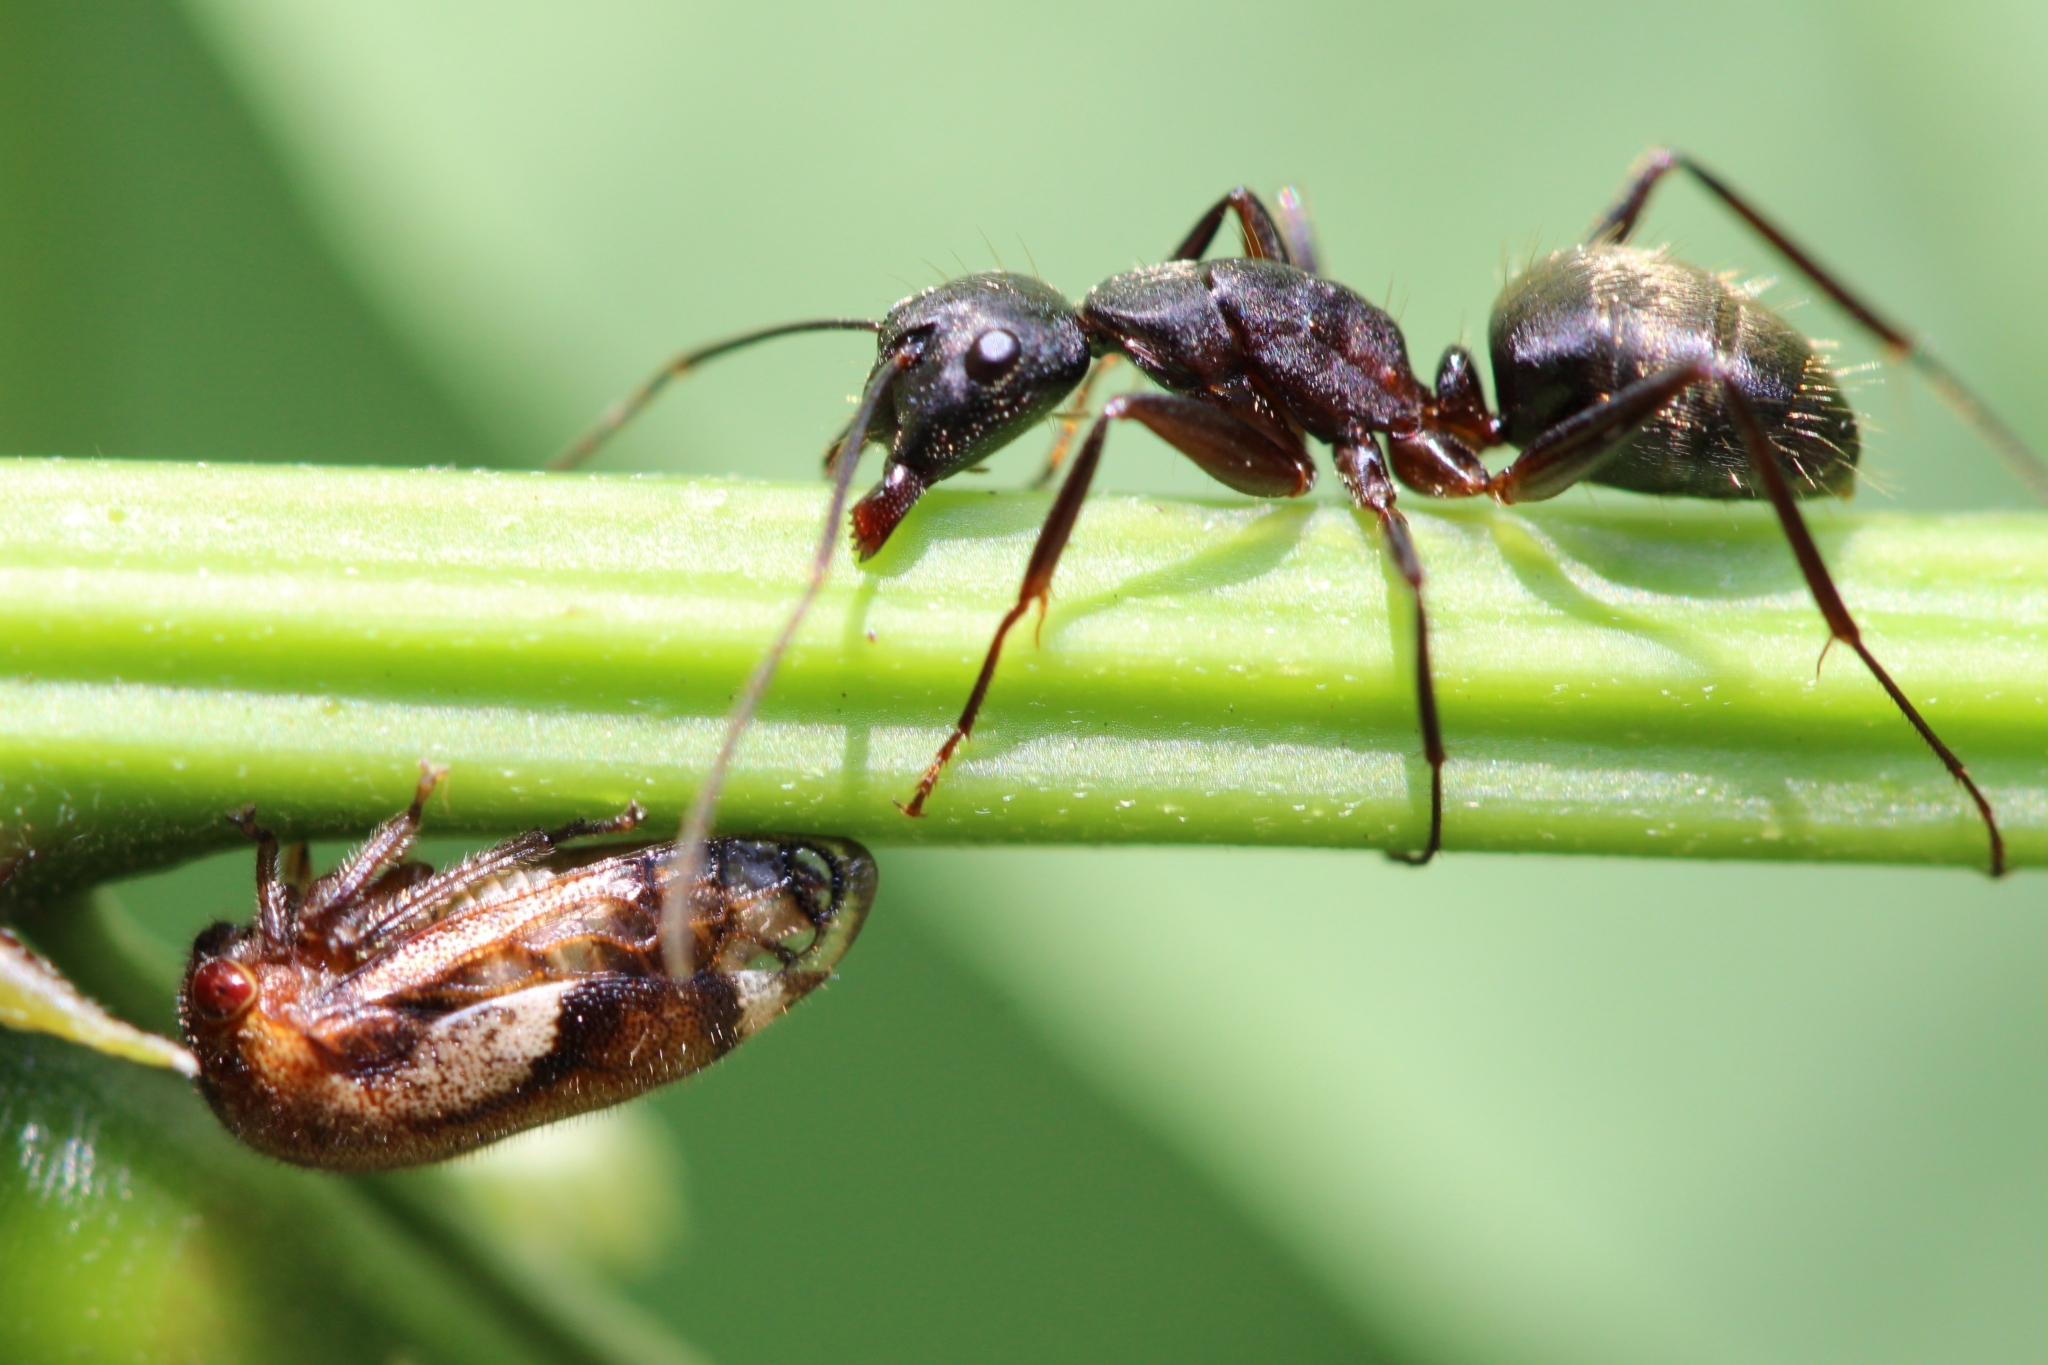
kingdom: Animalia
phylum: Arthropoda
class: Insecta
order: Hemiptera
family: Membracidae
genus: Vanduzea
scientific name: Vanduzea arquata
